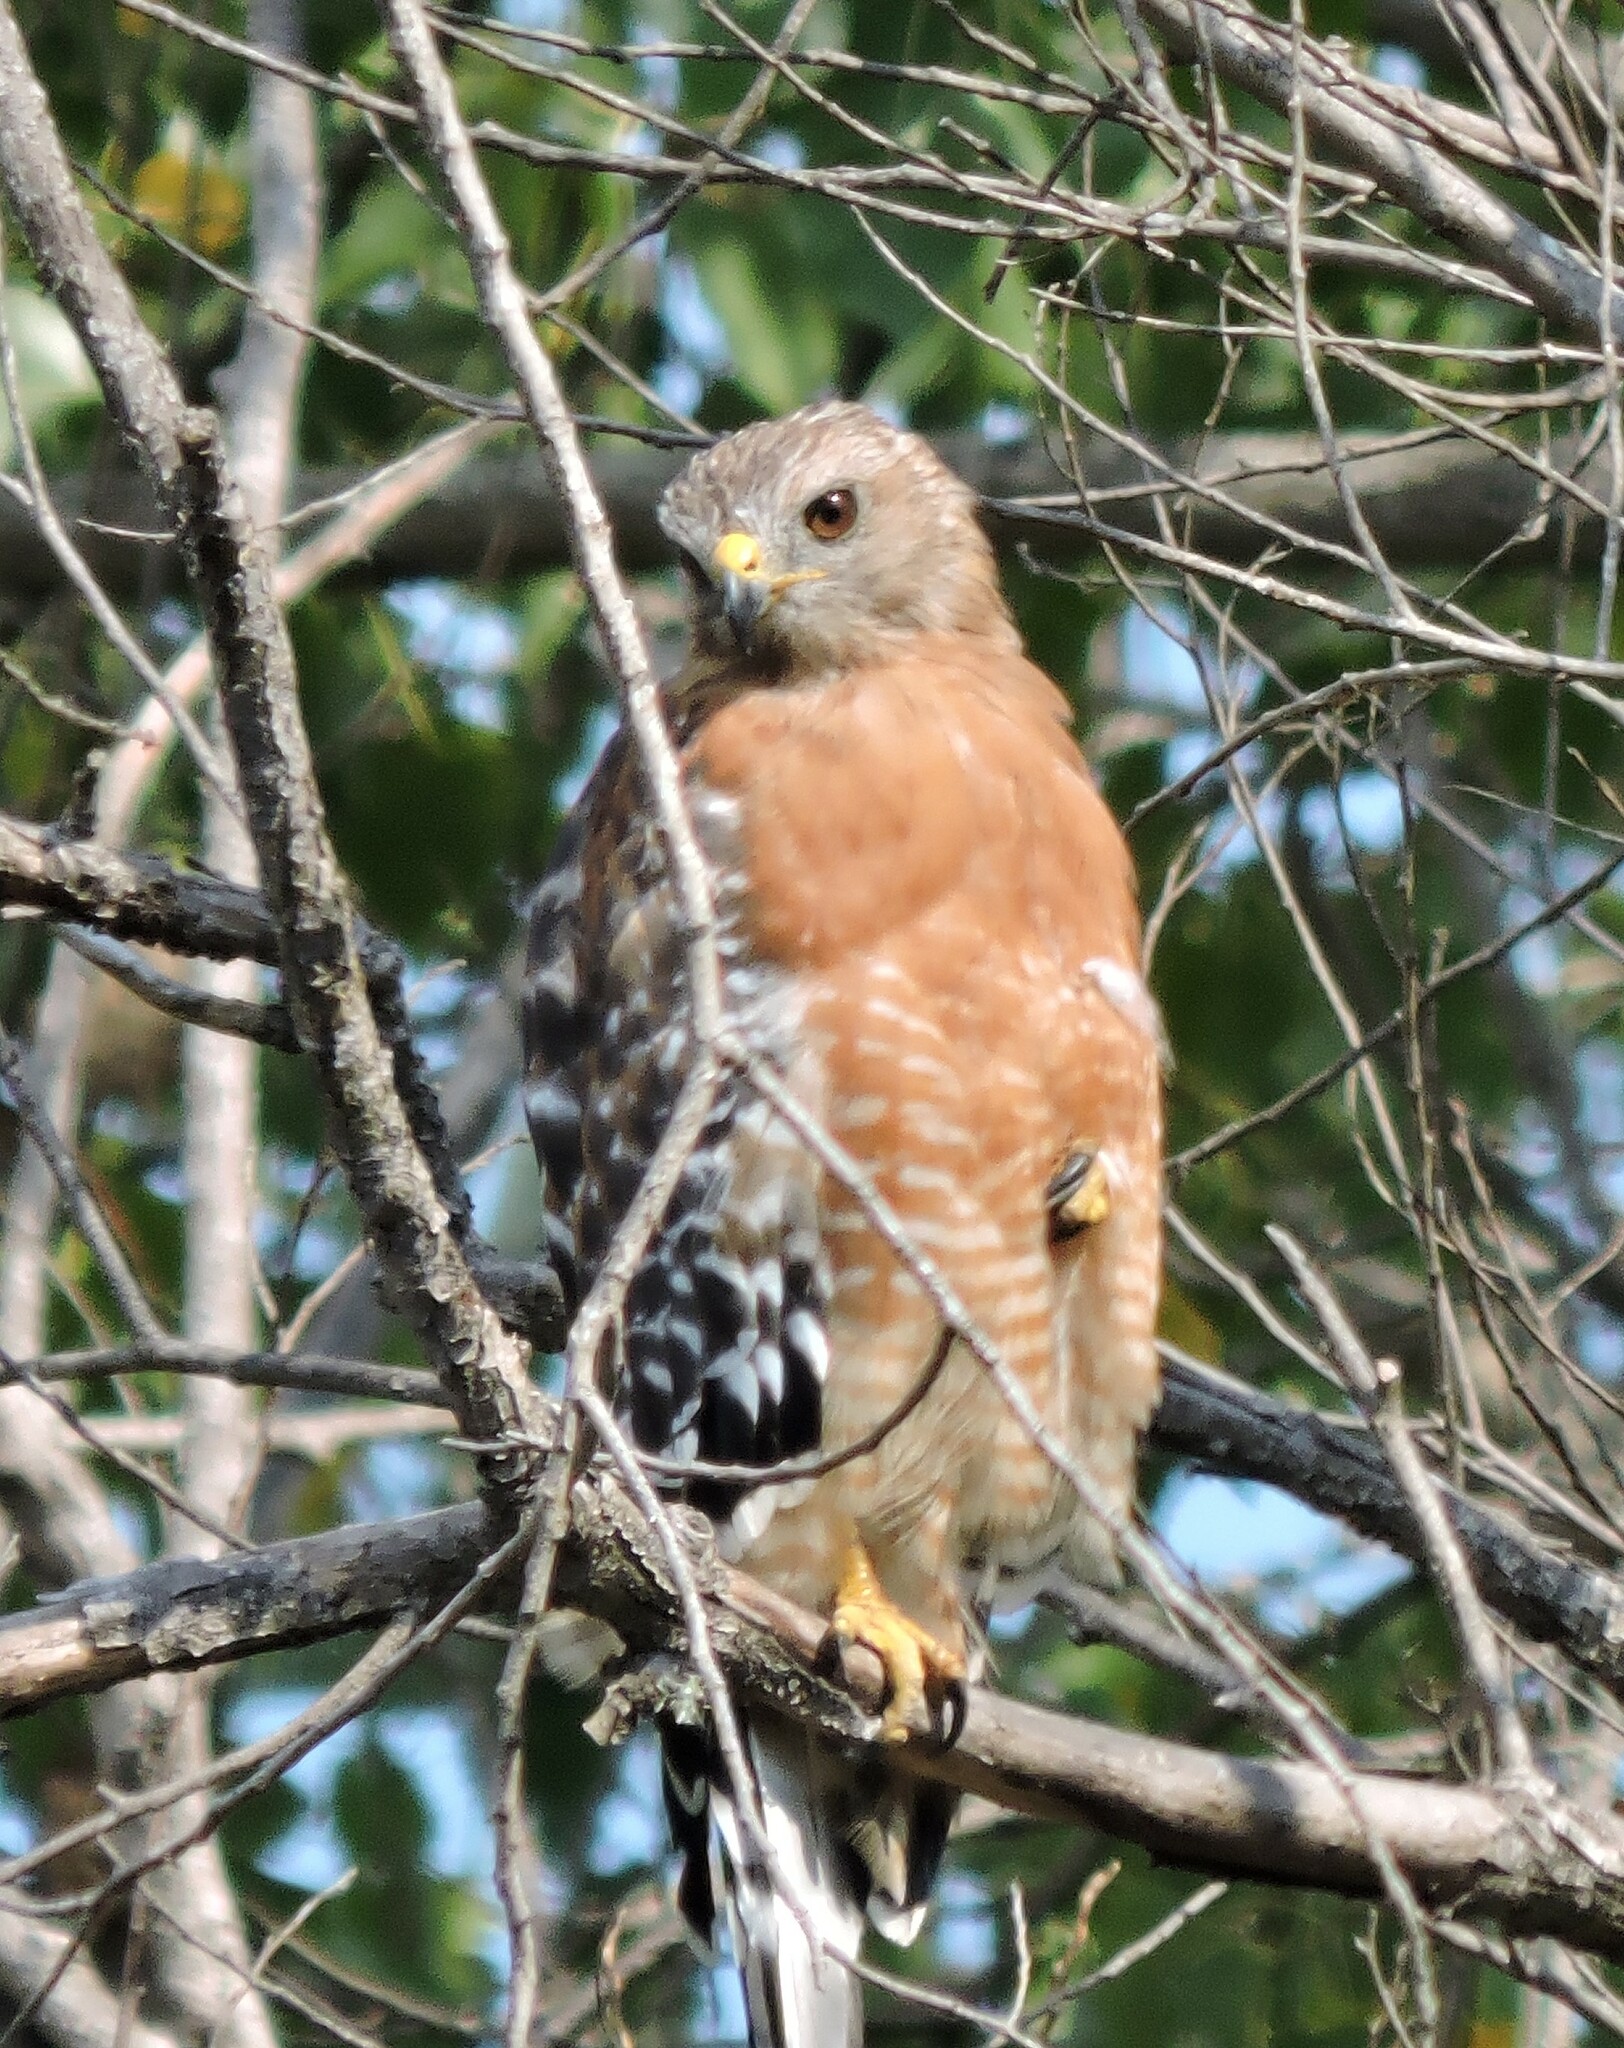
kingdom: Animalia
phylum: Chordata
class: Aves
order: Accipitriformes
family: Accipitridae
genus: Buteo
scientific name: Buteo lineatus
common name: Red-shouldered hawk
